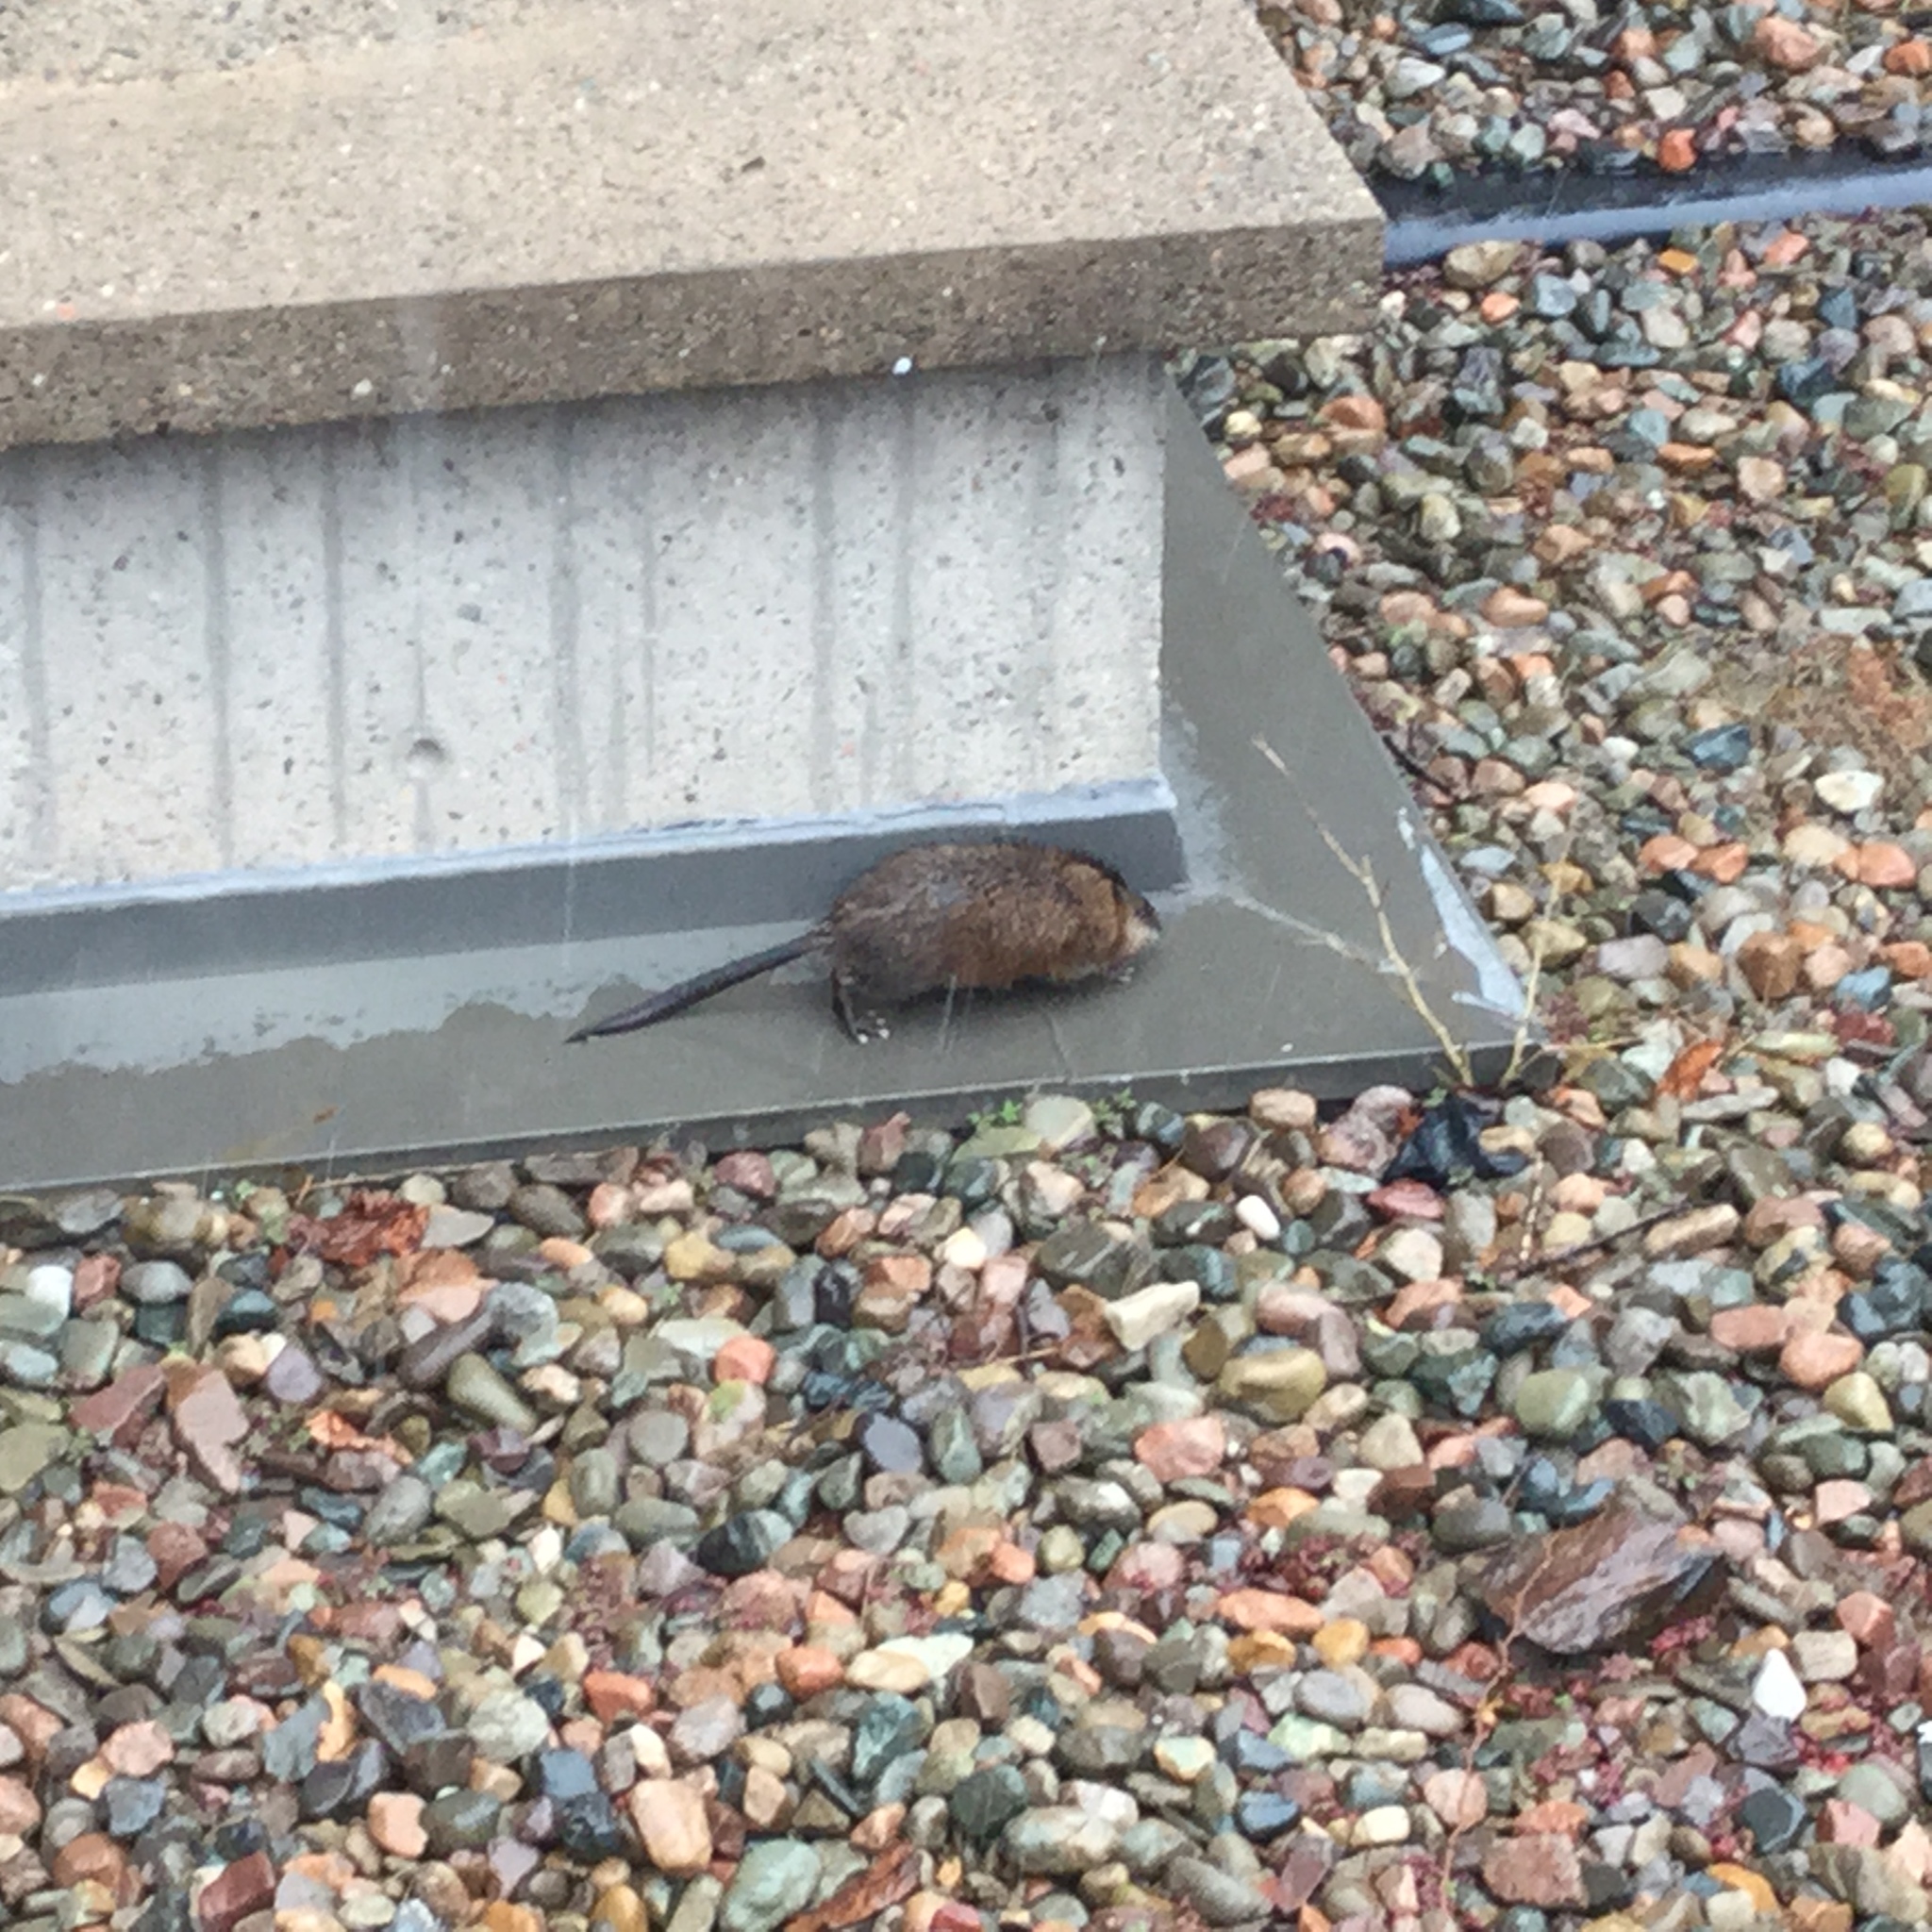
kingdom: Animalia
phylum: Chordata
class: Mammalia
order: Rodentia
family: Cricetidae
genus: Ondatra
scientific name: Ondatra zibethicus
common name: Muskrat
